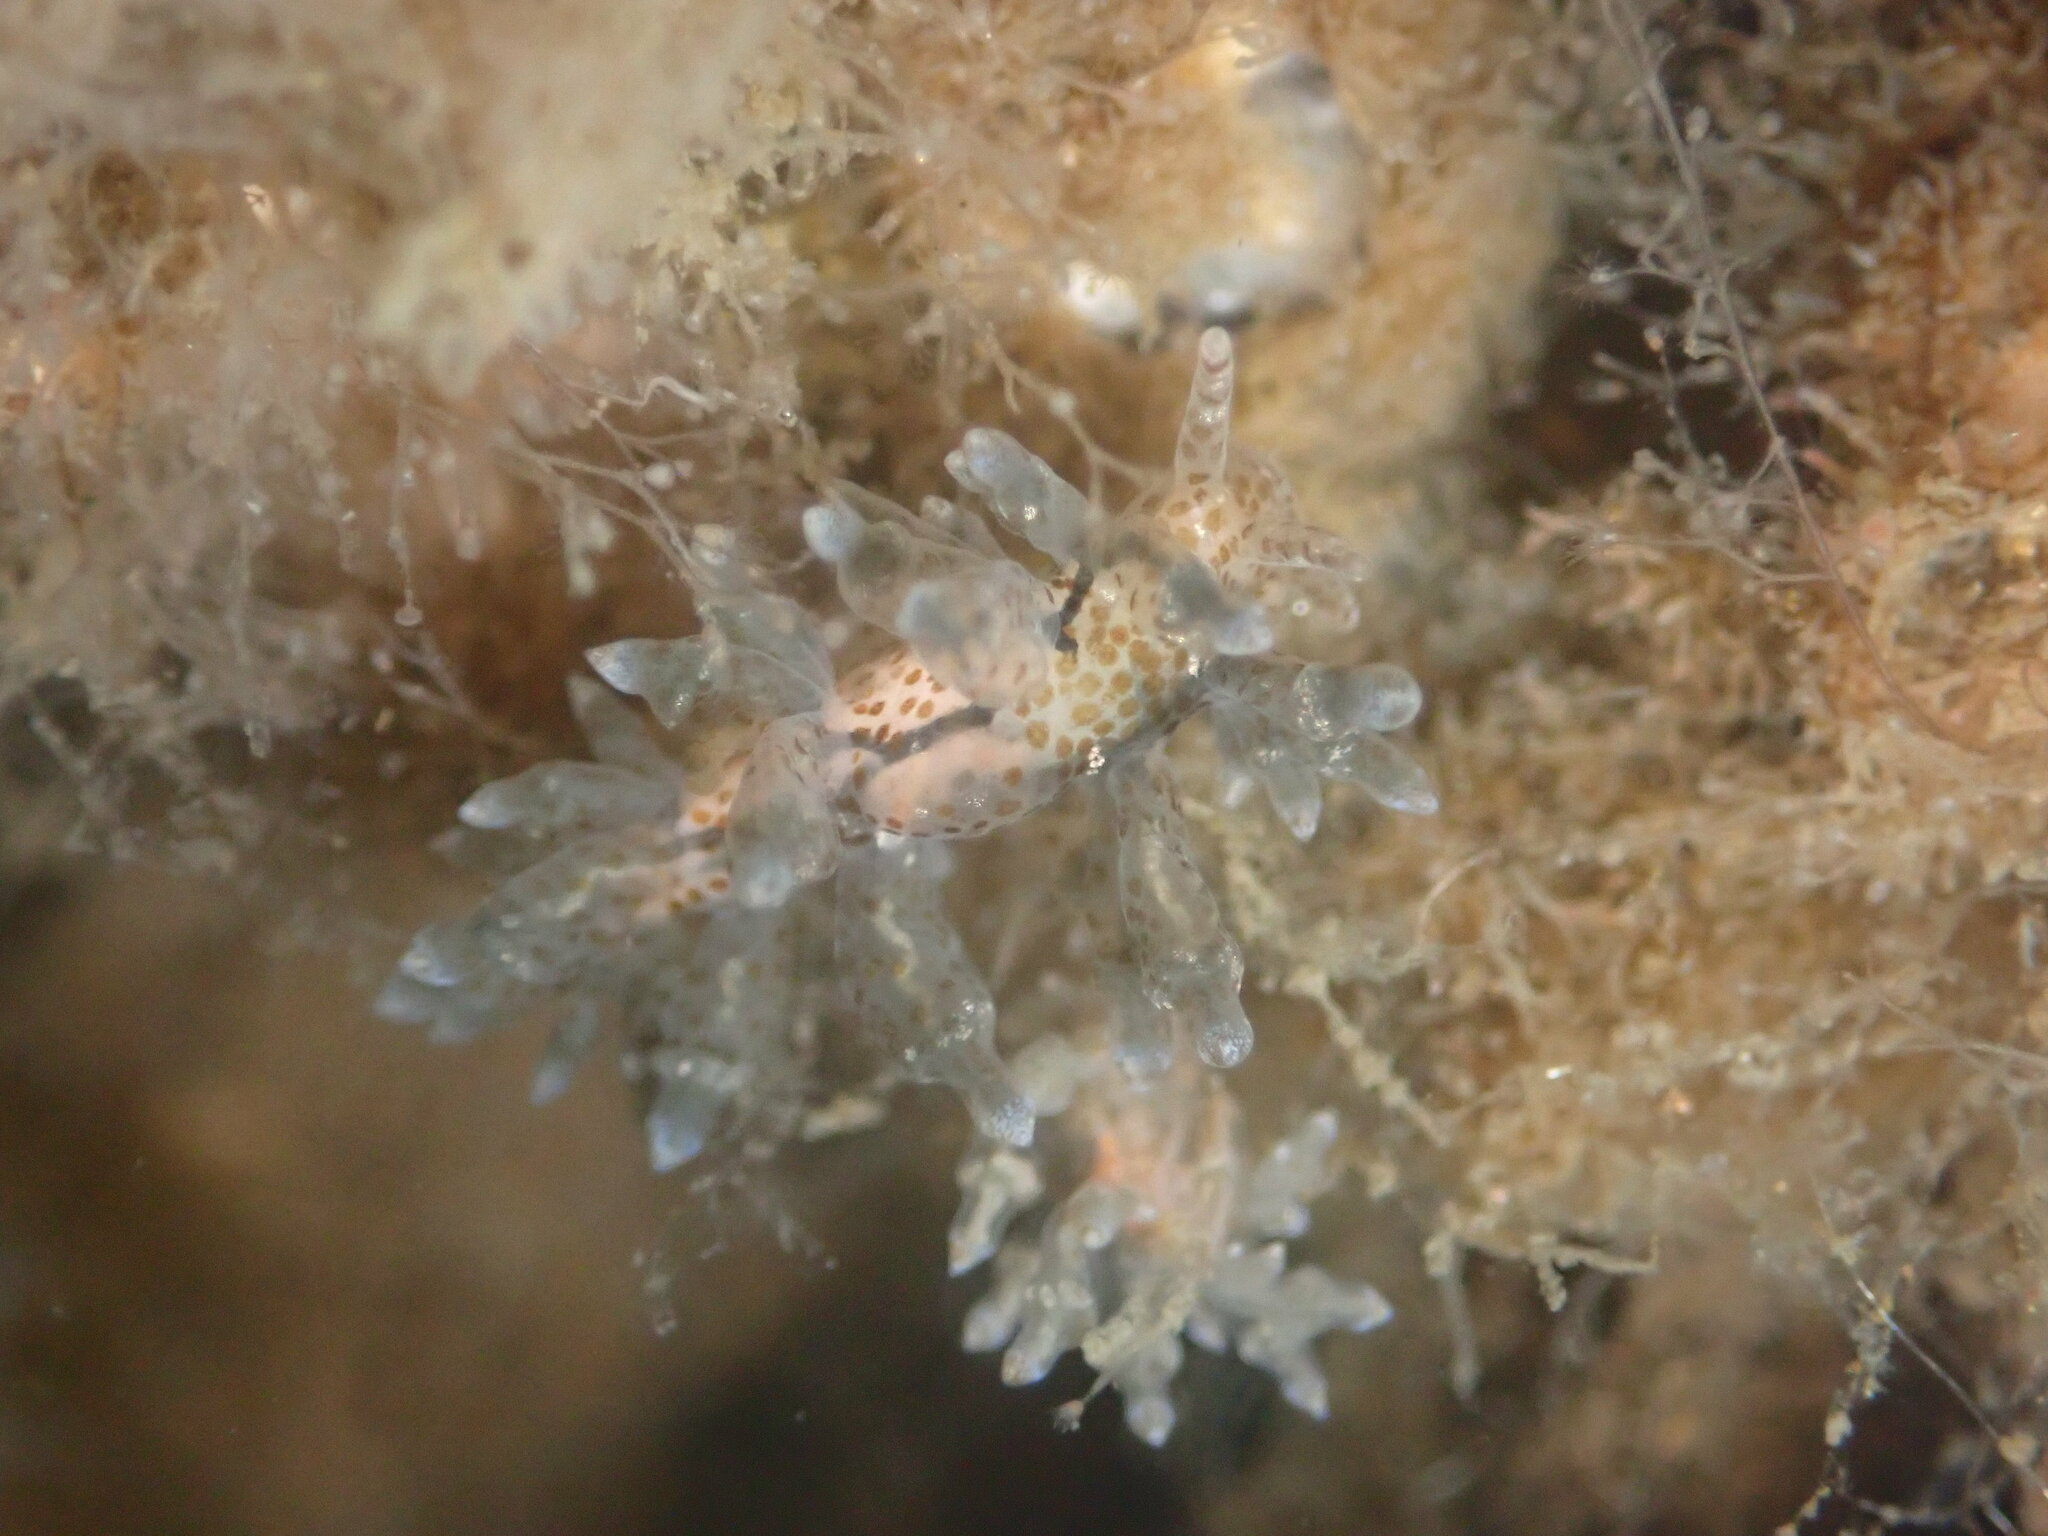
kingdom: Animalia
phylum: Mollusca
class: Gastropoda
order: Nudibranchia
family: Eubranchidae
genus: Leostyletus
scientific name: Leostyletus misakiensis
